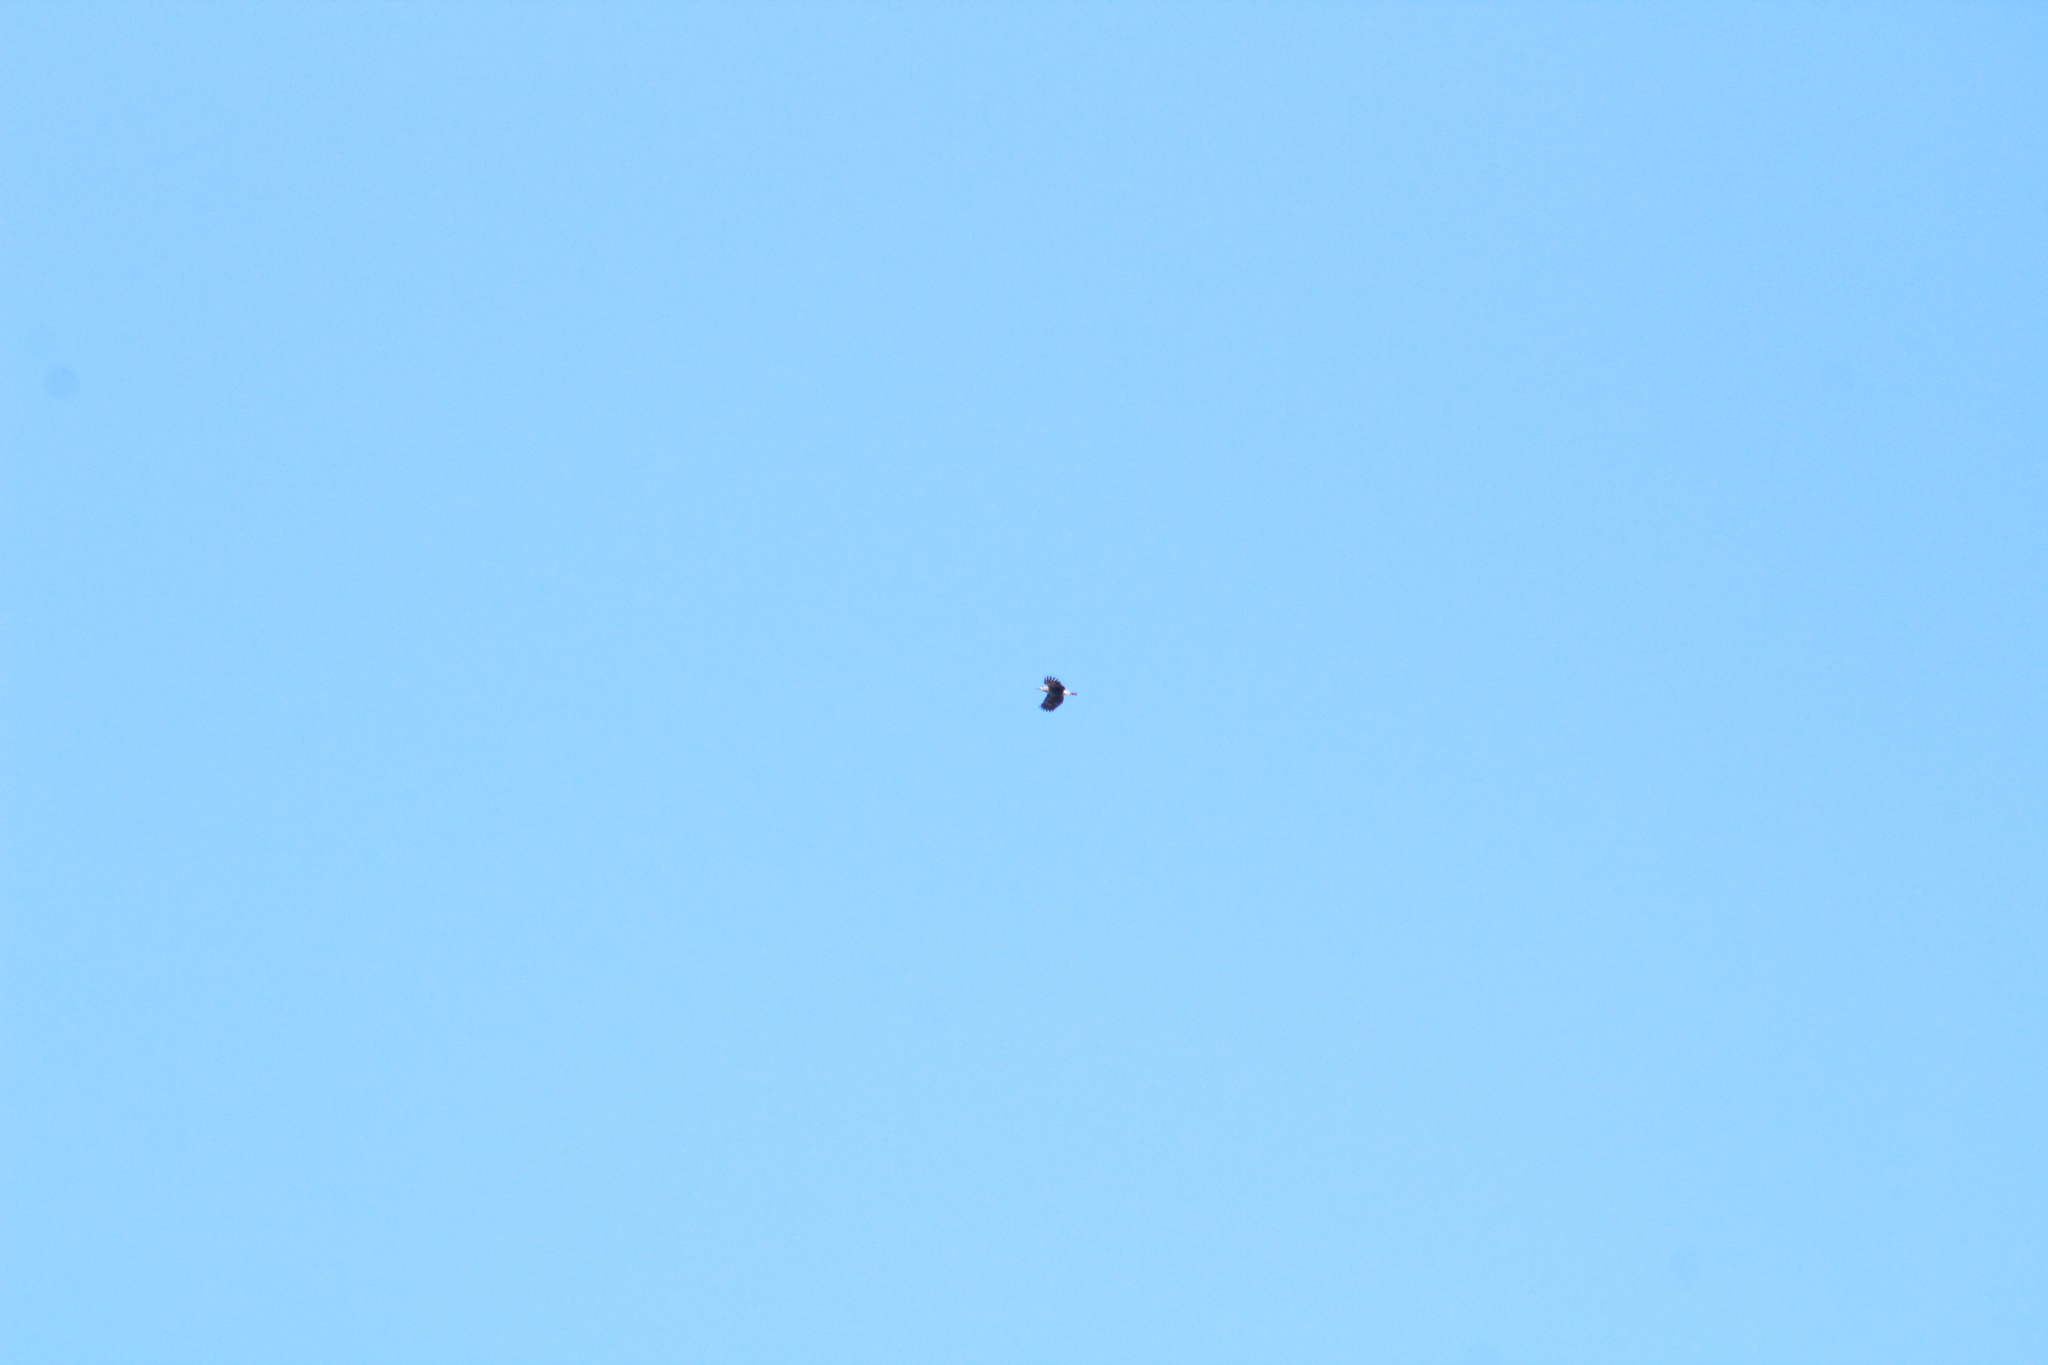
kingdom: Animalia
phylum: Chordata
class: Aves
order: Passeriformes
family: Corvidae
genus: Nucifraga
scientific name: Nucifraga caryocatactes
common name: Spotted nutcracker
